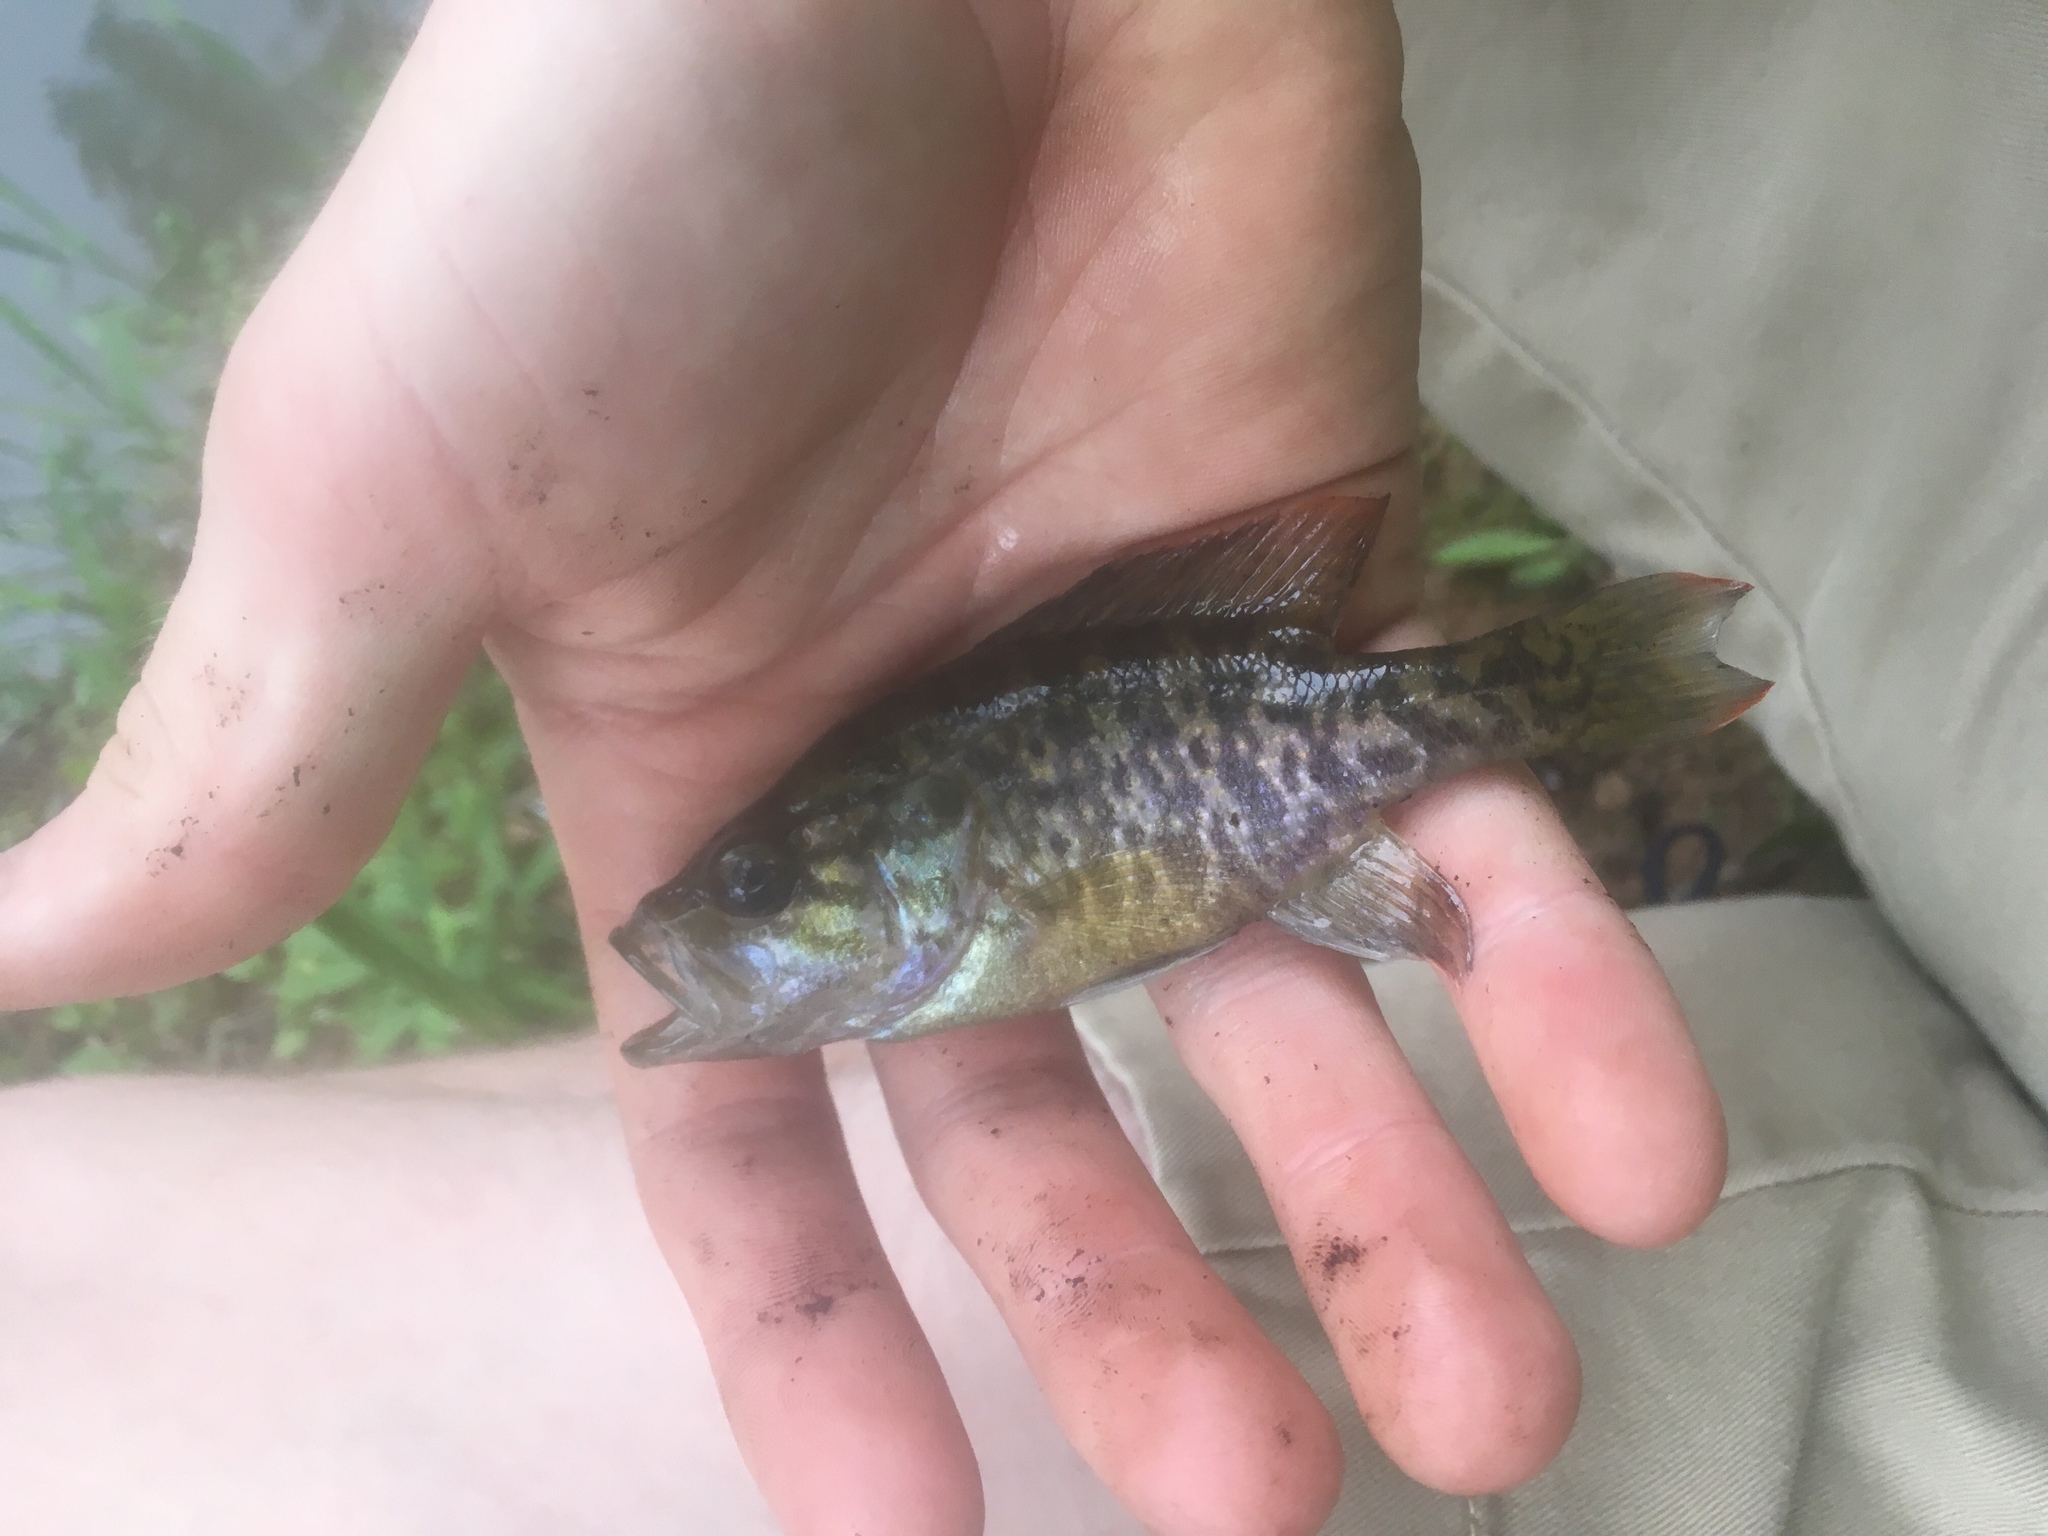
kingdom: Animalia
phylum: Chordata
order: Perciformes
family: Centrarchidae
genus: Lepomis
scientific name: Lepomis gulosus
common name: Warmouth
